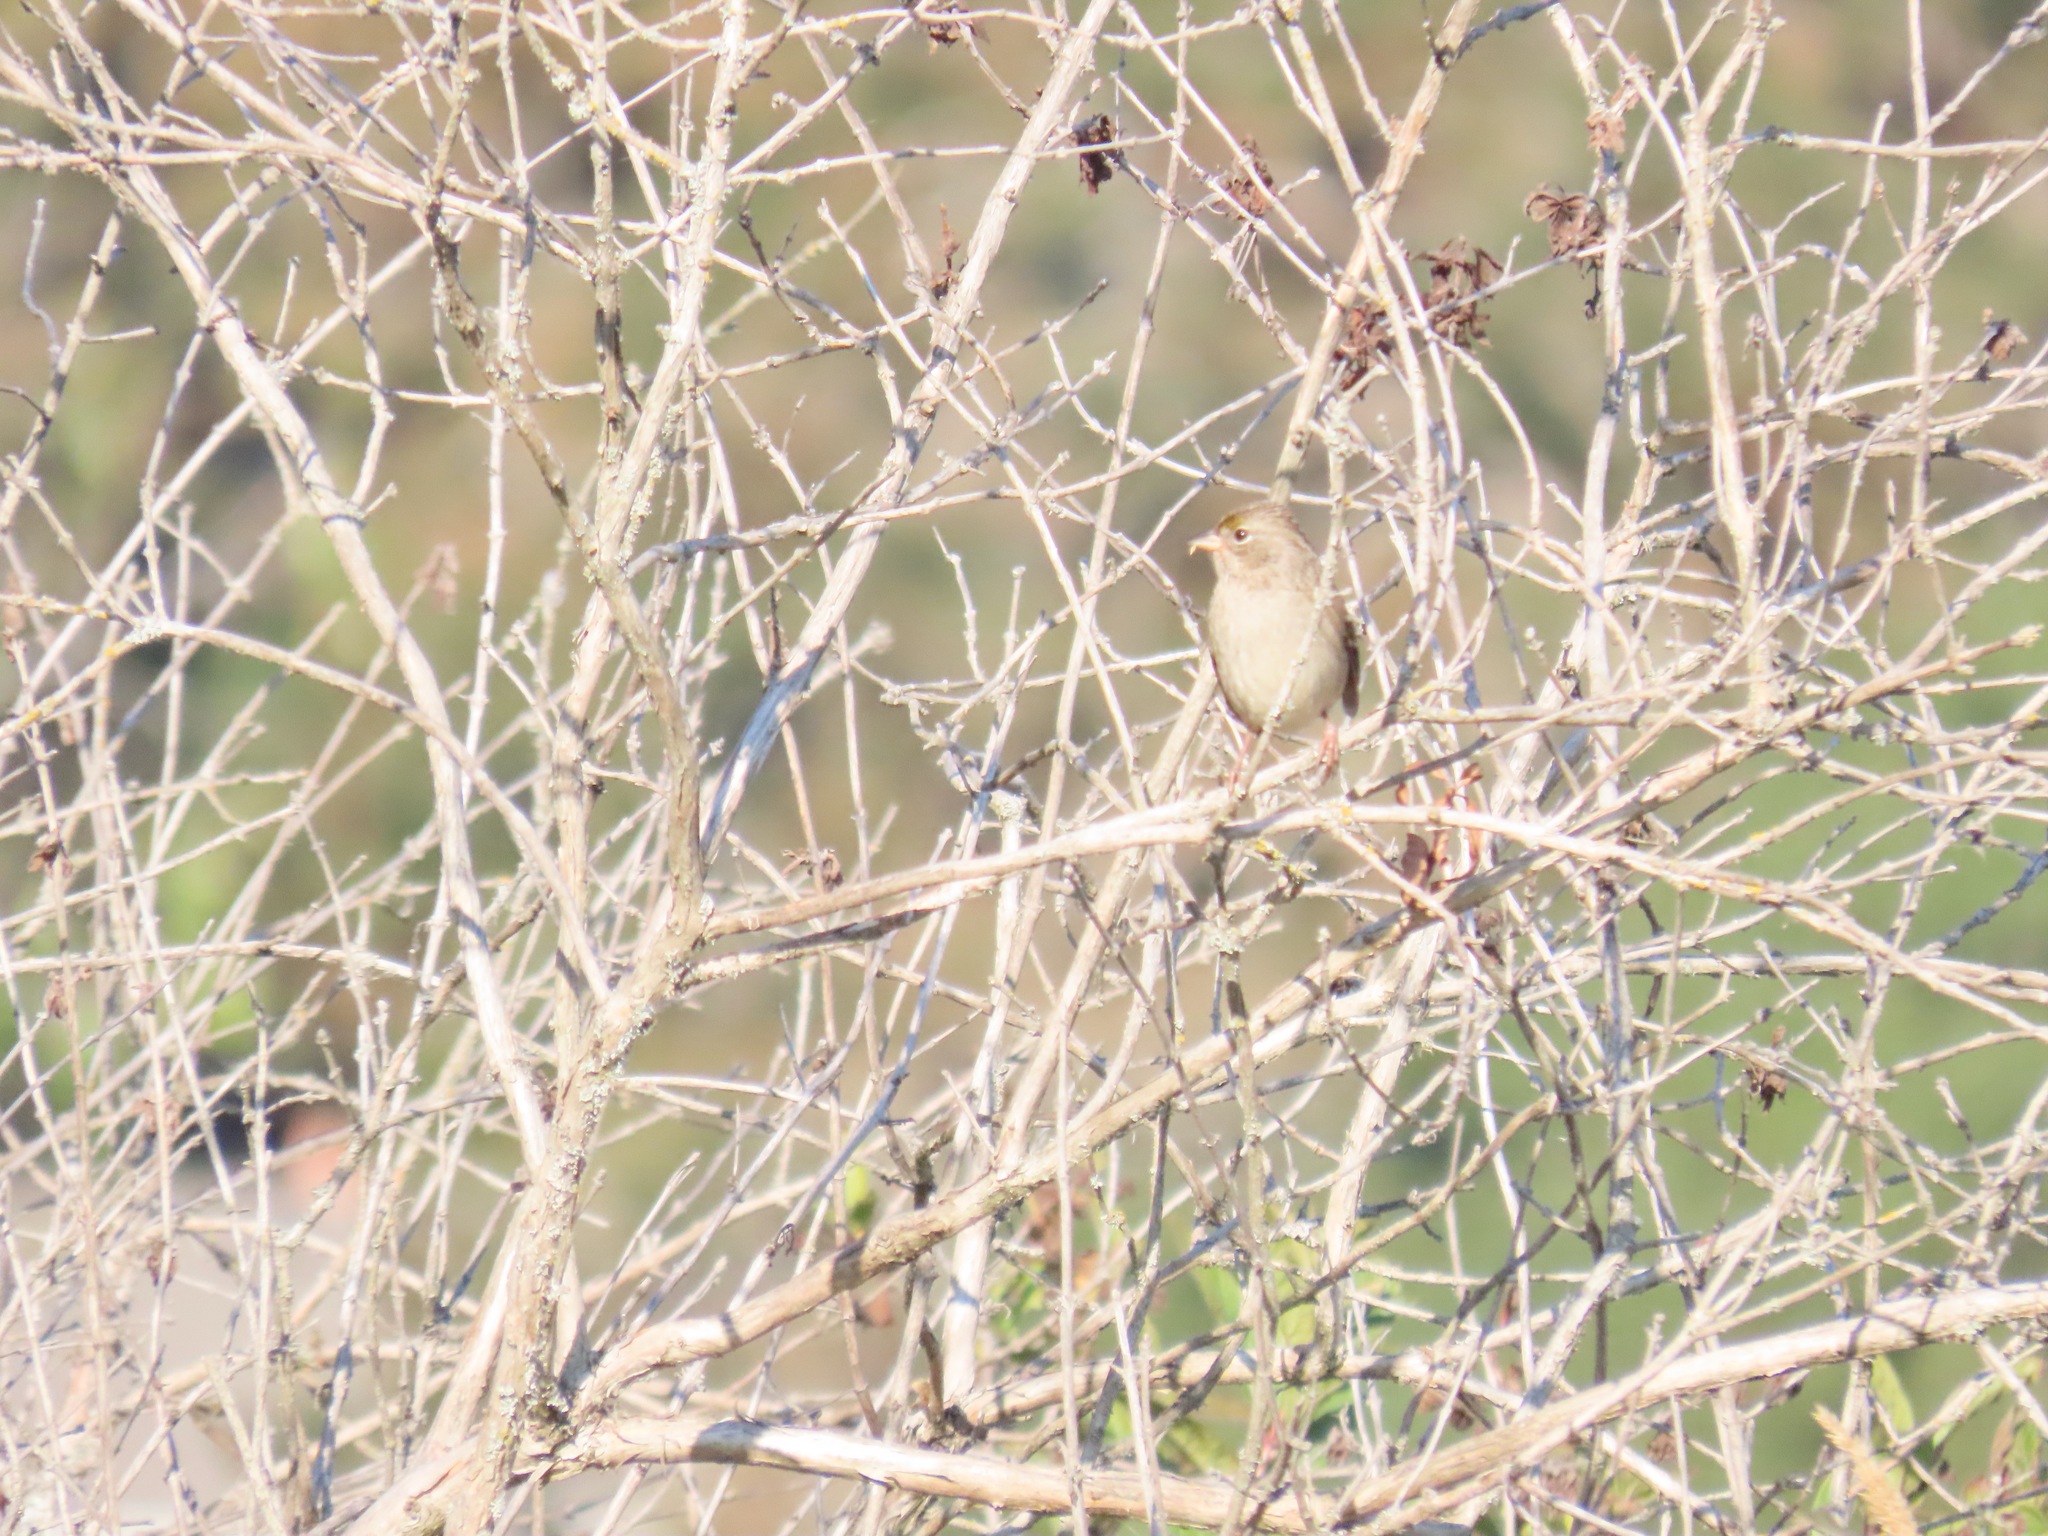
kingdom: Animalia
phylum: Chordata
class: Aves
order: Passeriformes
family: Passerellidae
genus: Zonotrichia
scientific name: Zonotrichia atricapilla
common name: Golden-crowned sparrow
